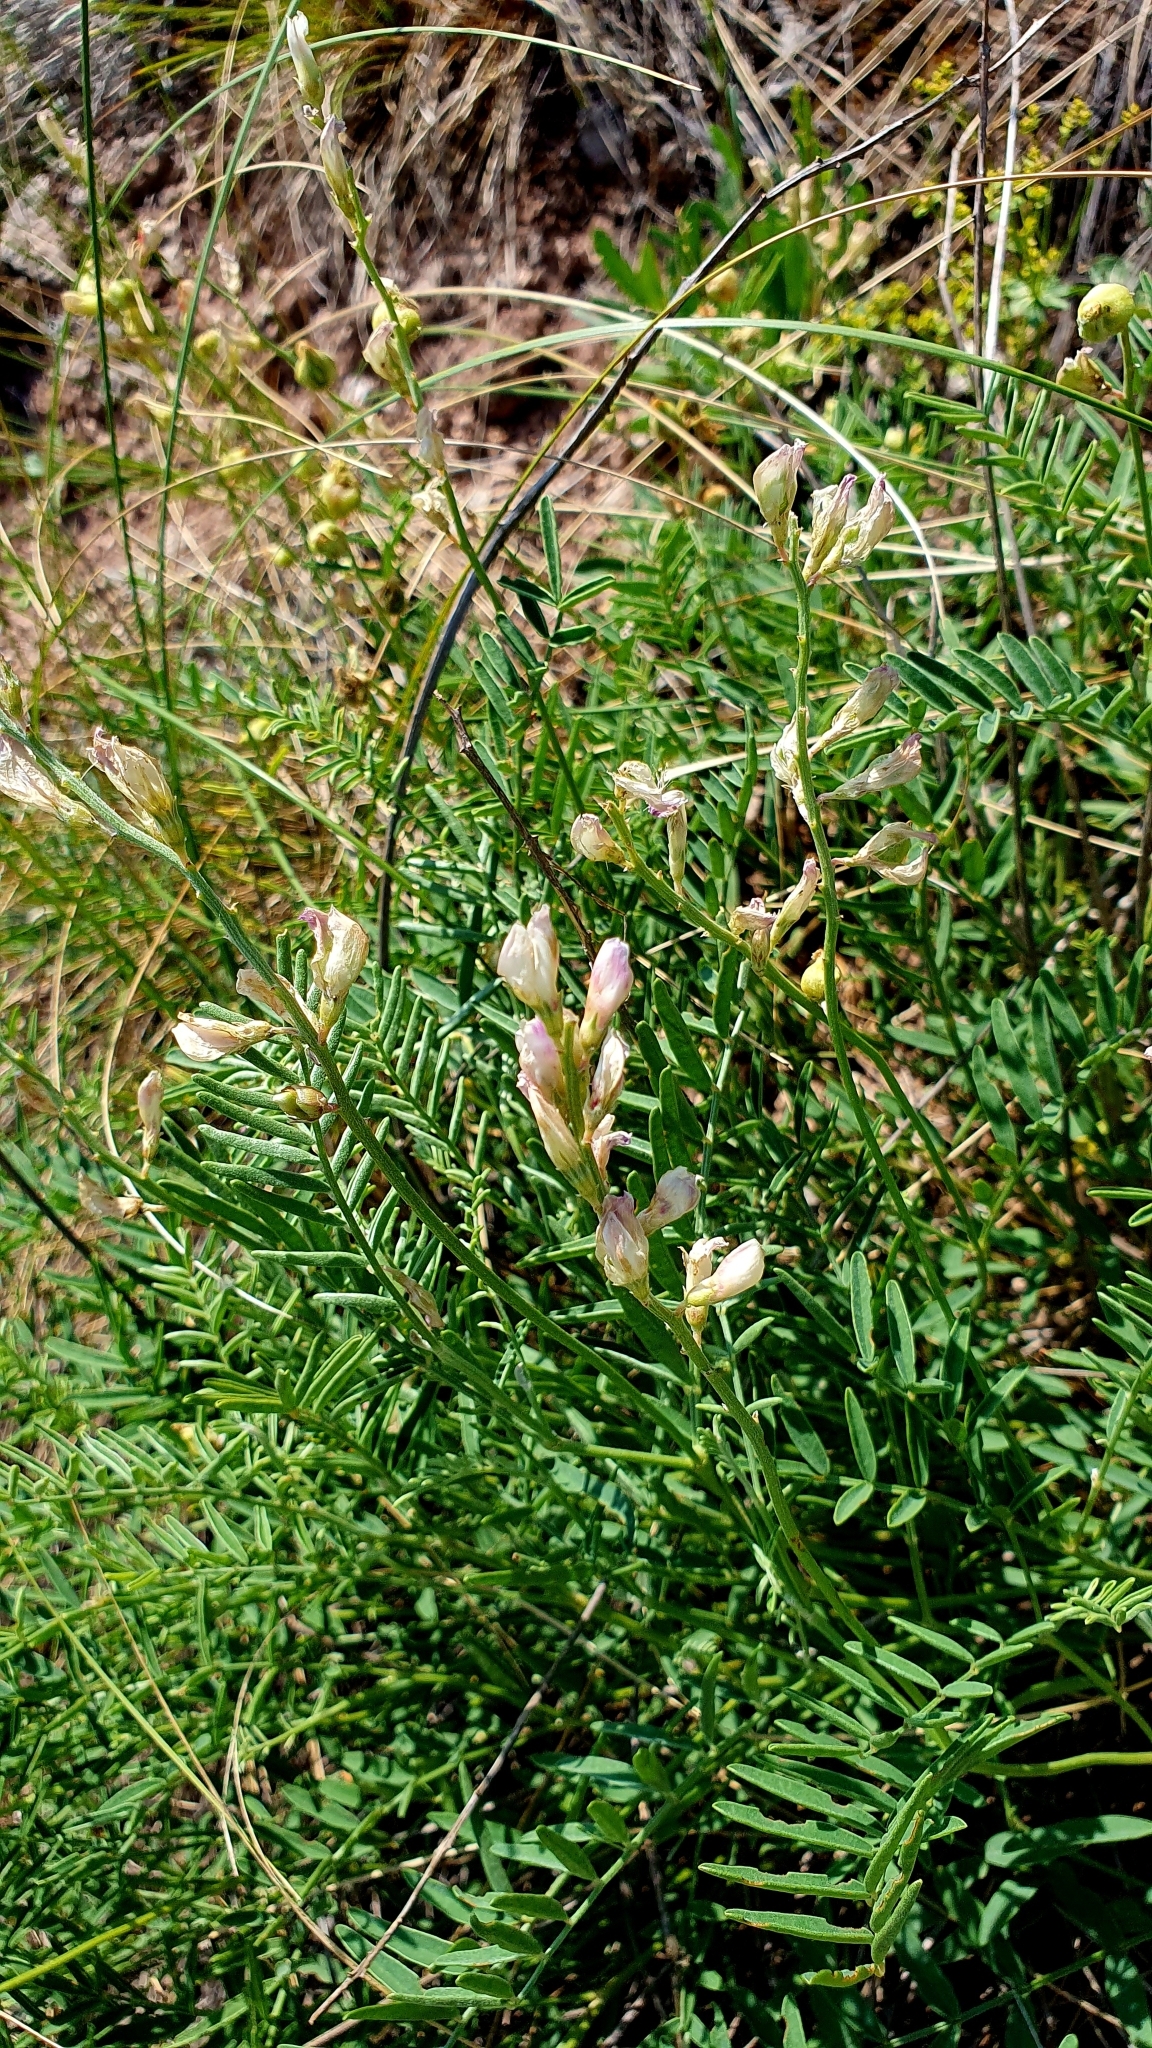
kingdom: Plantae
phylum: Tracheophyta
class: Magnoliopsida
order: Fabales
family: Fabaceae
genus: Hedysarum
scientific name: Hedysarum razoumovianum
